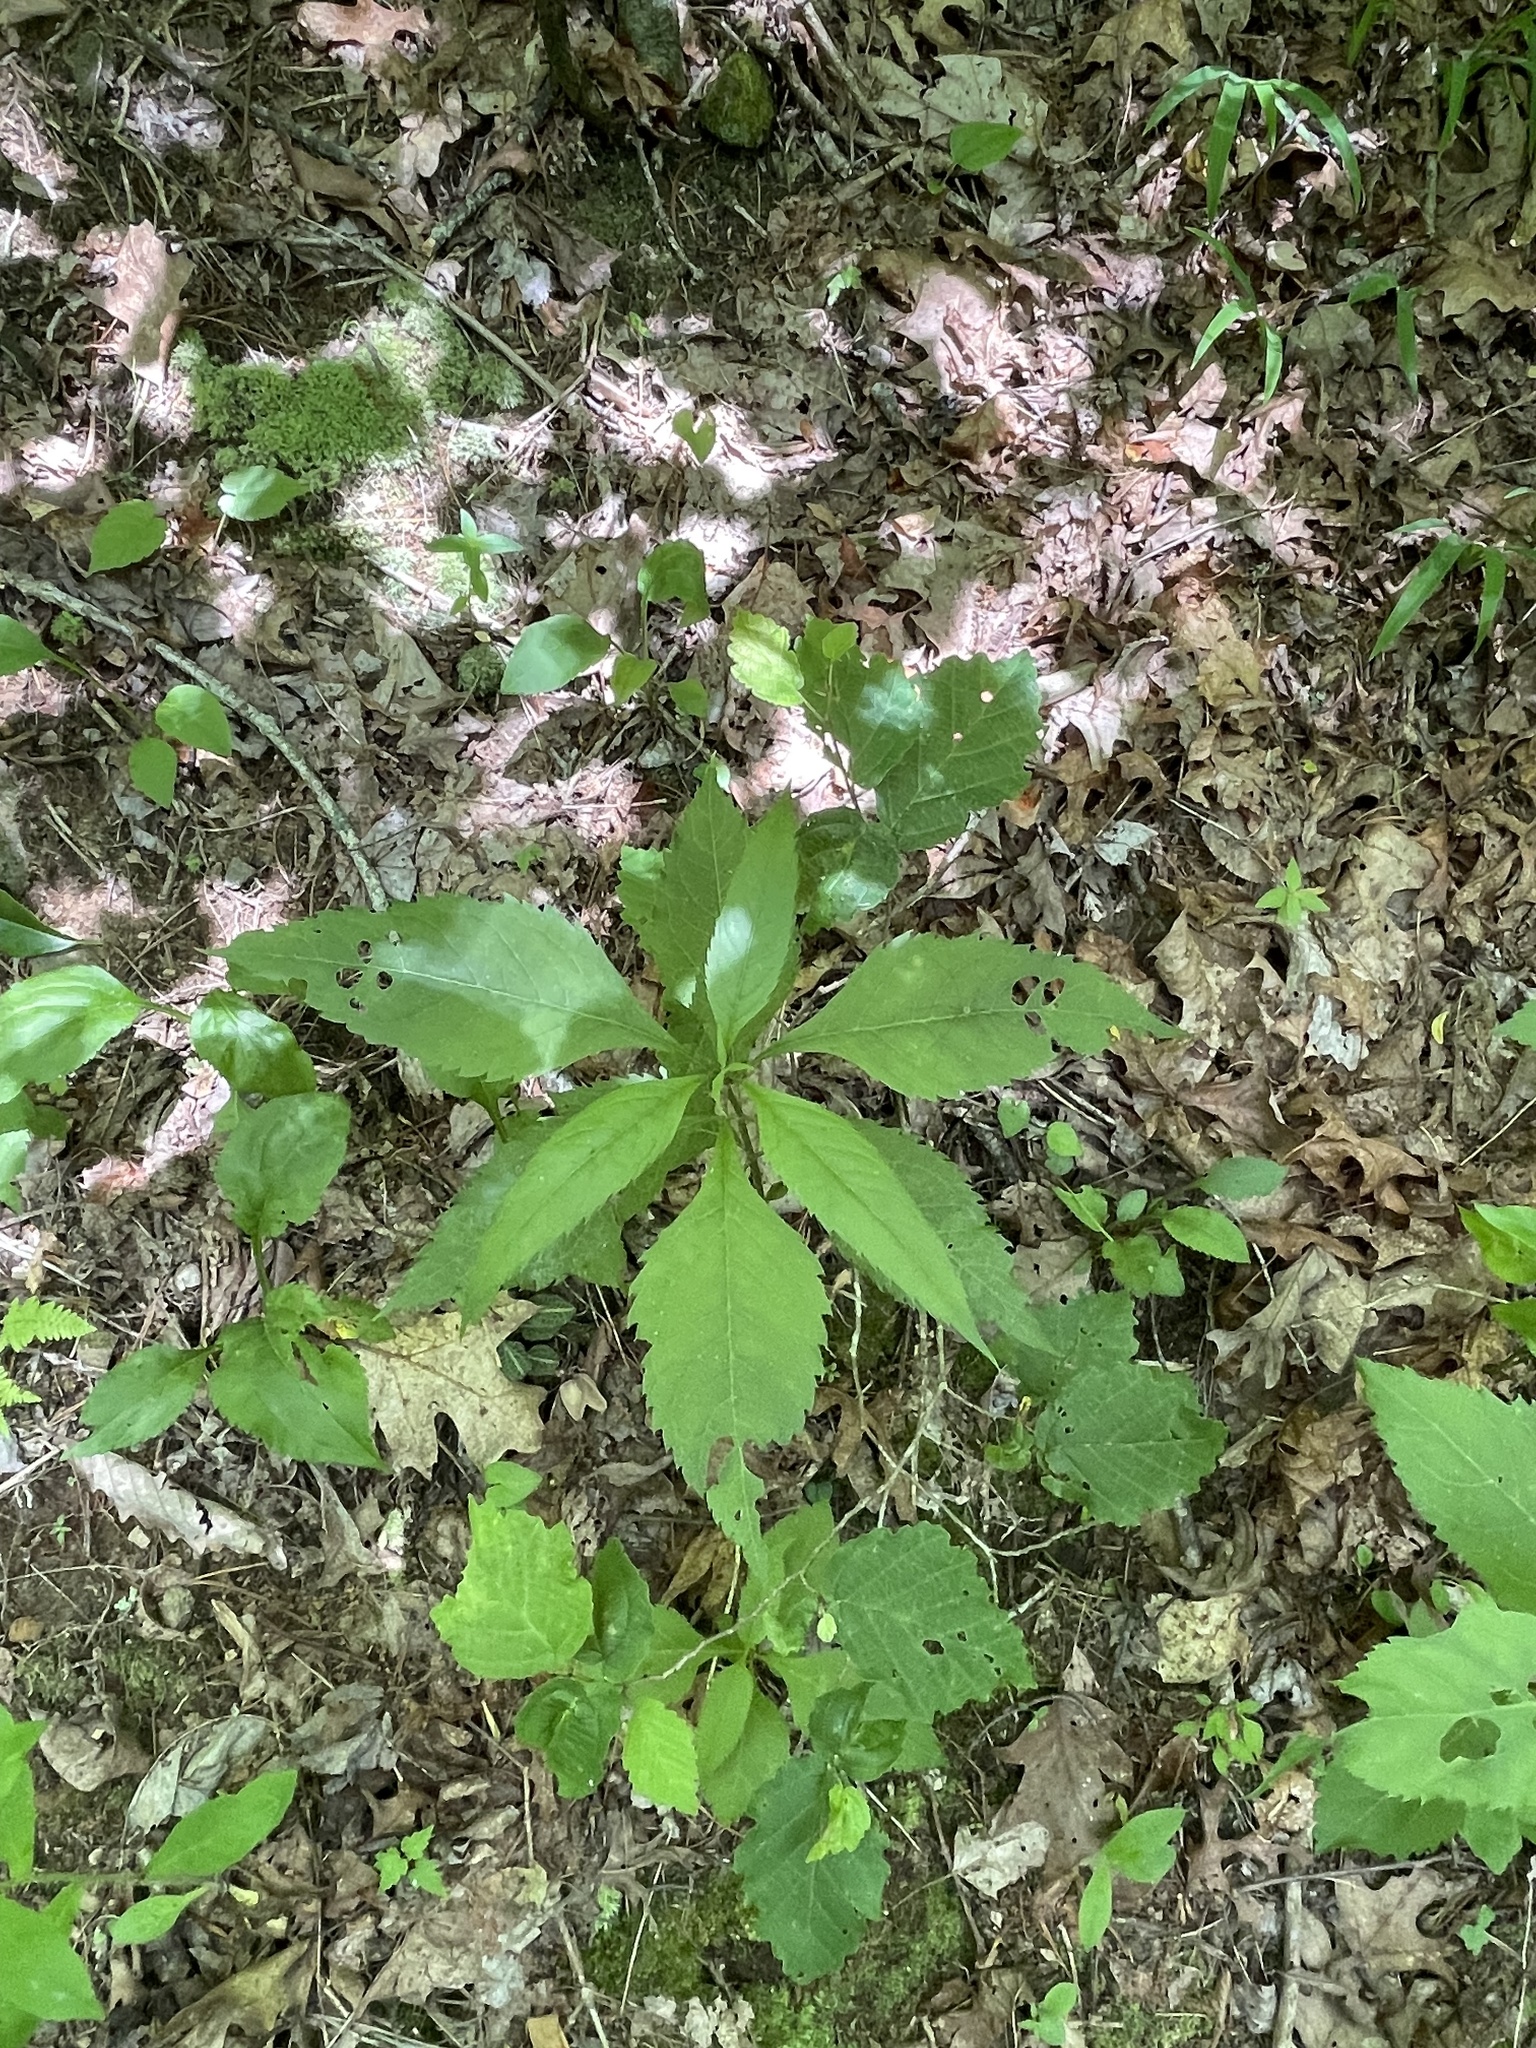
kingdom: Plantae
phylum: Tracheophyta
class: Magnoliopsida
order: Asterales
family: Asteraceae
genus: Eutrochium
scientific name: Eutrochium purpureum
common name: Gravelroot
